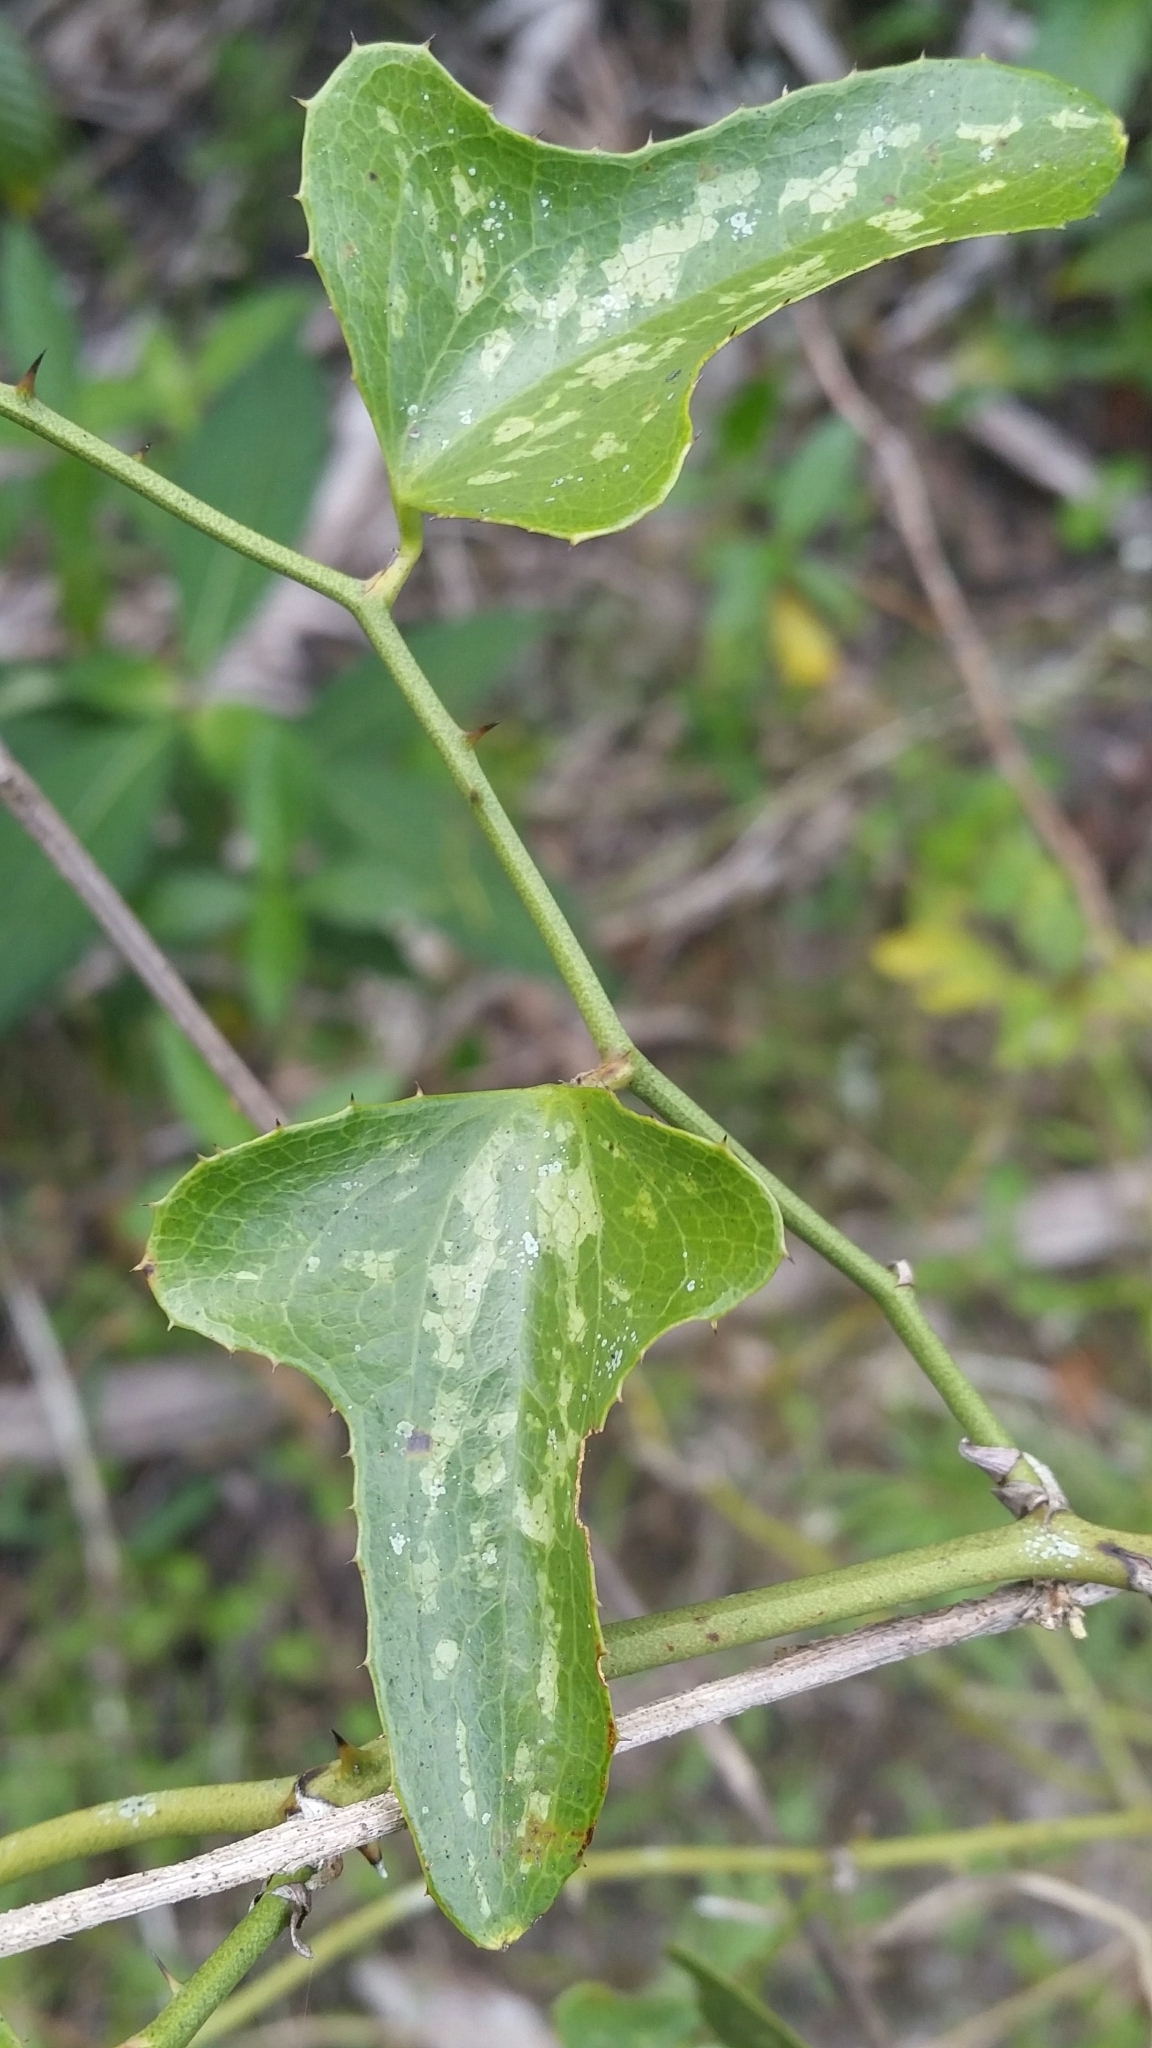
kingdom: Plantae
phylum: Tracheophyta
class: Liliopsida
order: Liliales
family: Smilacaceae
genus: Smilax
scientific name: Smilax bona-nox
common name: Catbrier
